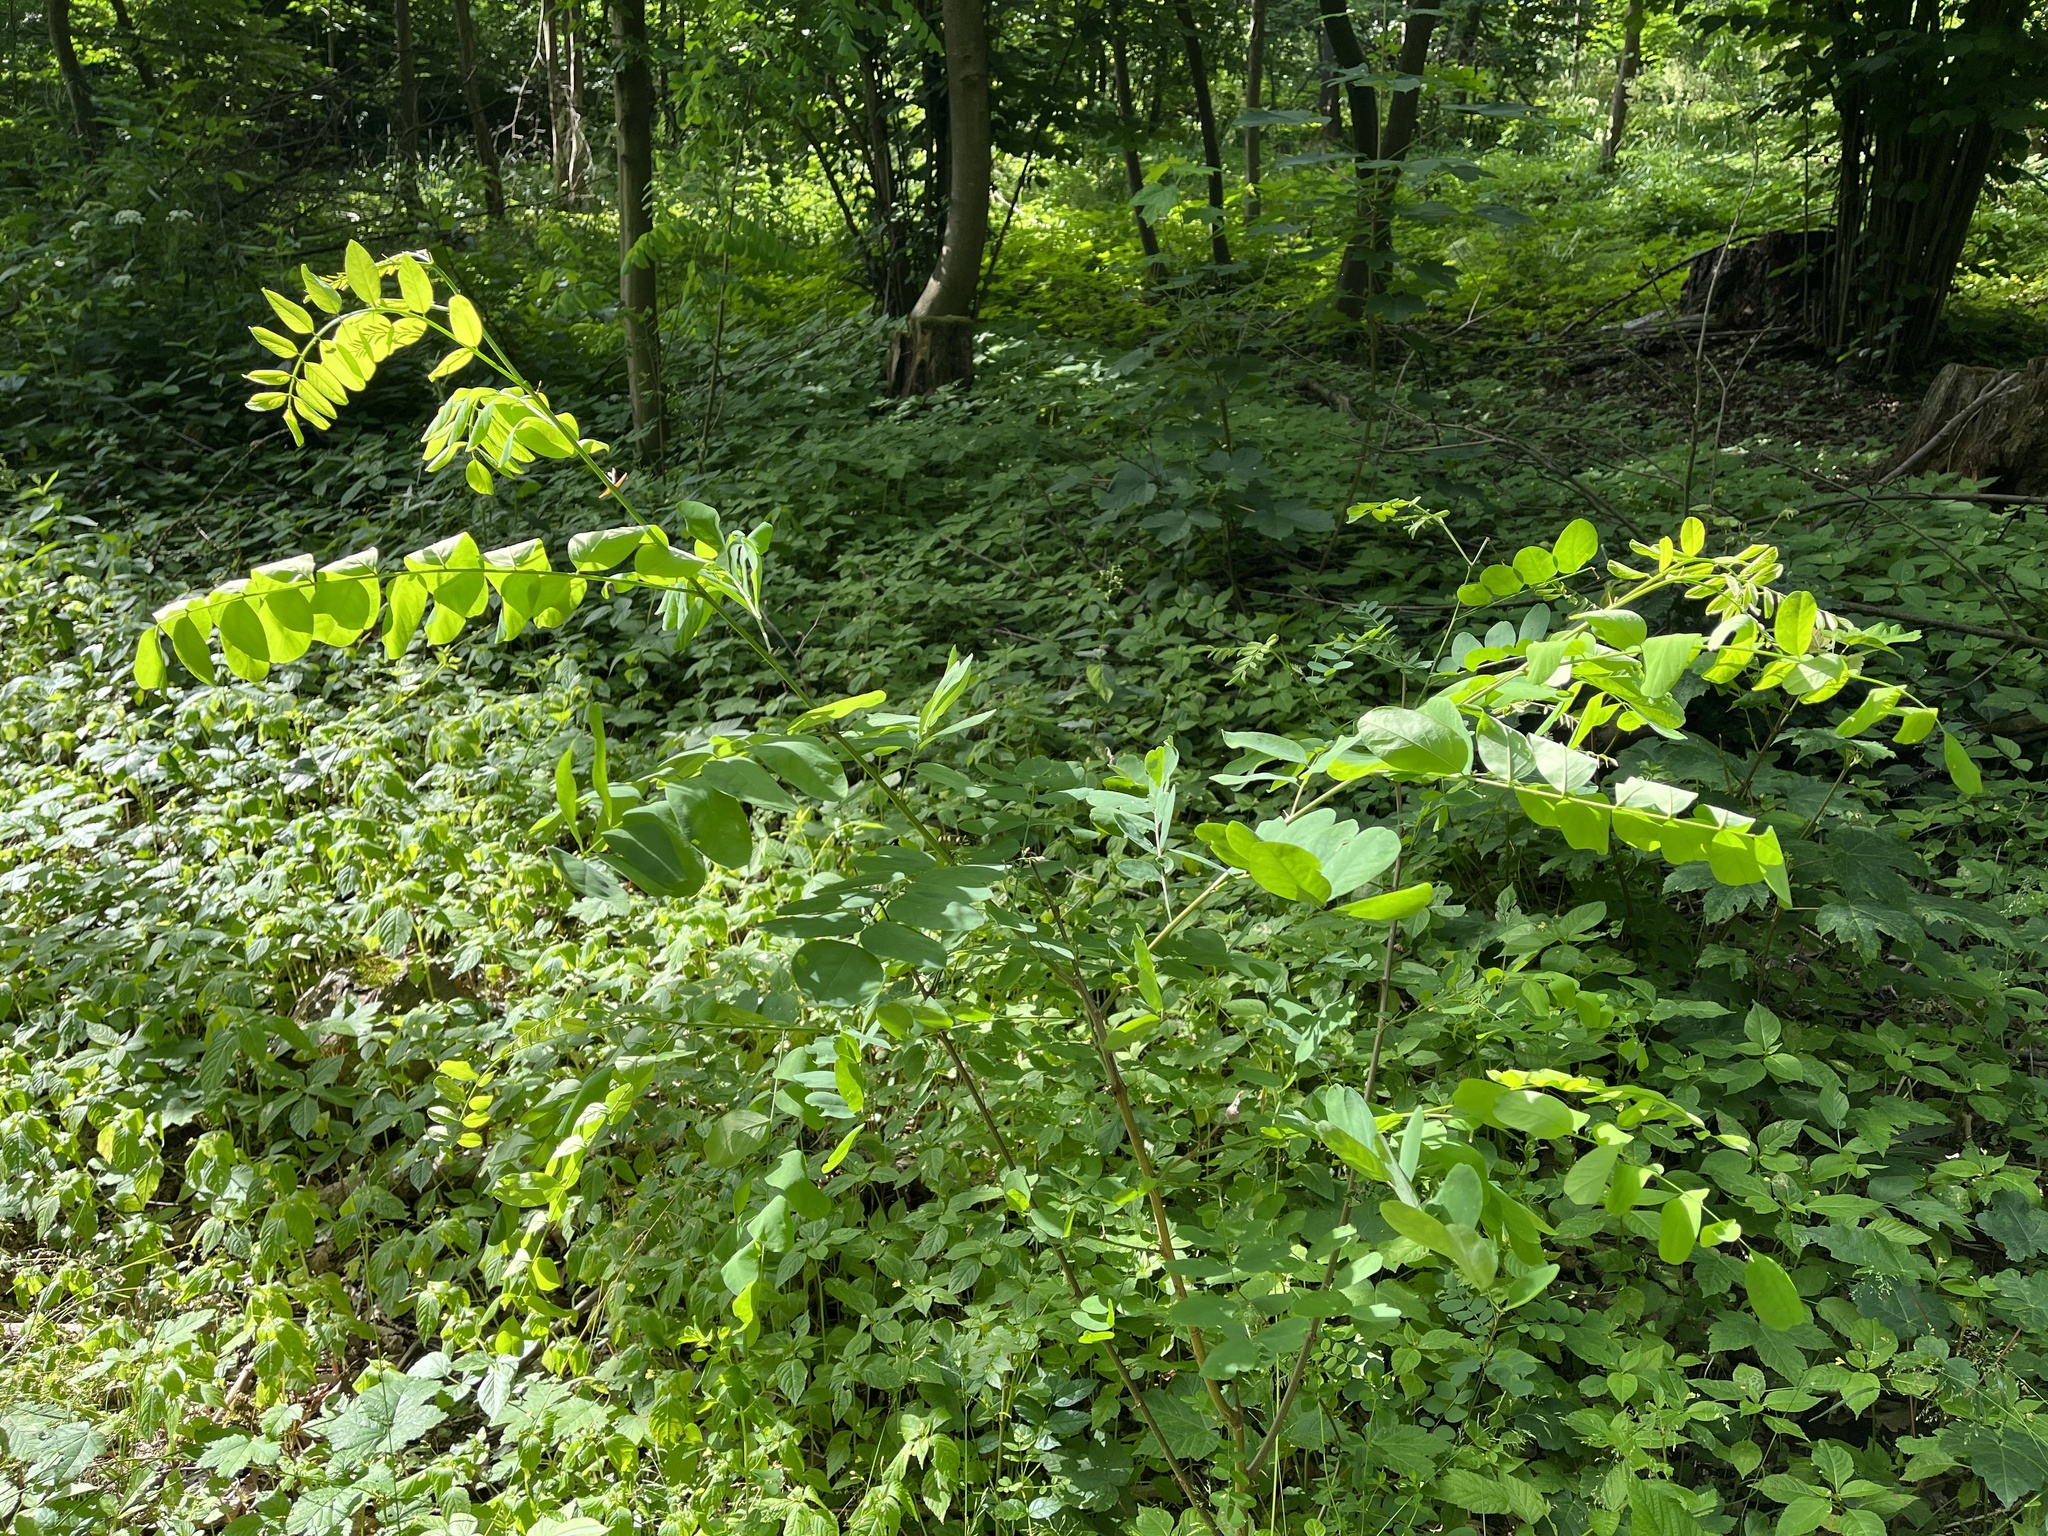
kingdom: Plantae
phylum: Tracheophyta
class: Magnoliopsida
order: Fabales
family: Fabaceae
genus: Robinia
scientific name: Robinia pseudoacacia
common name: Black locust
